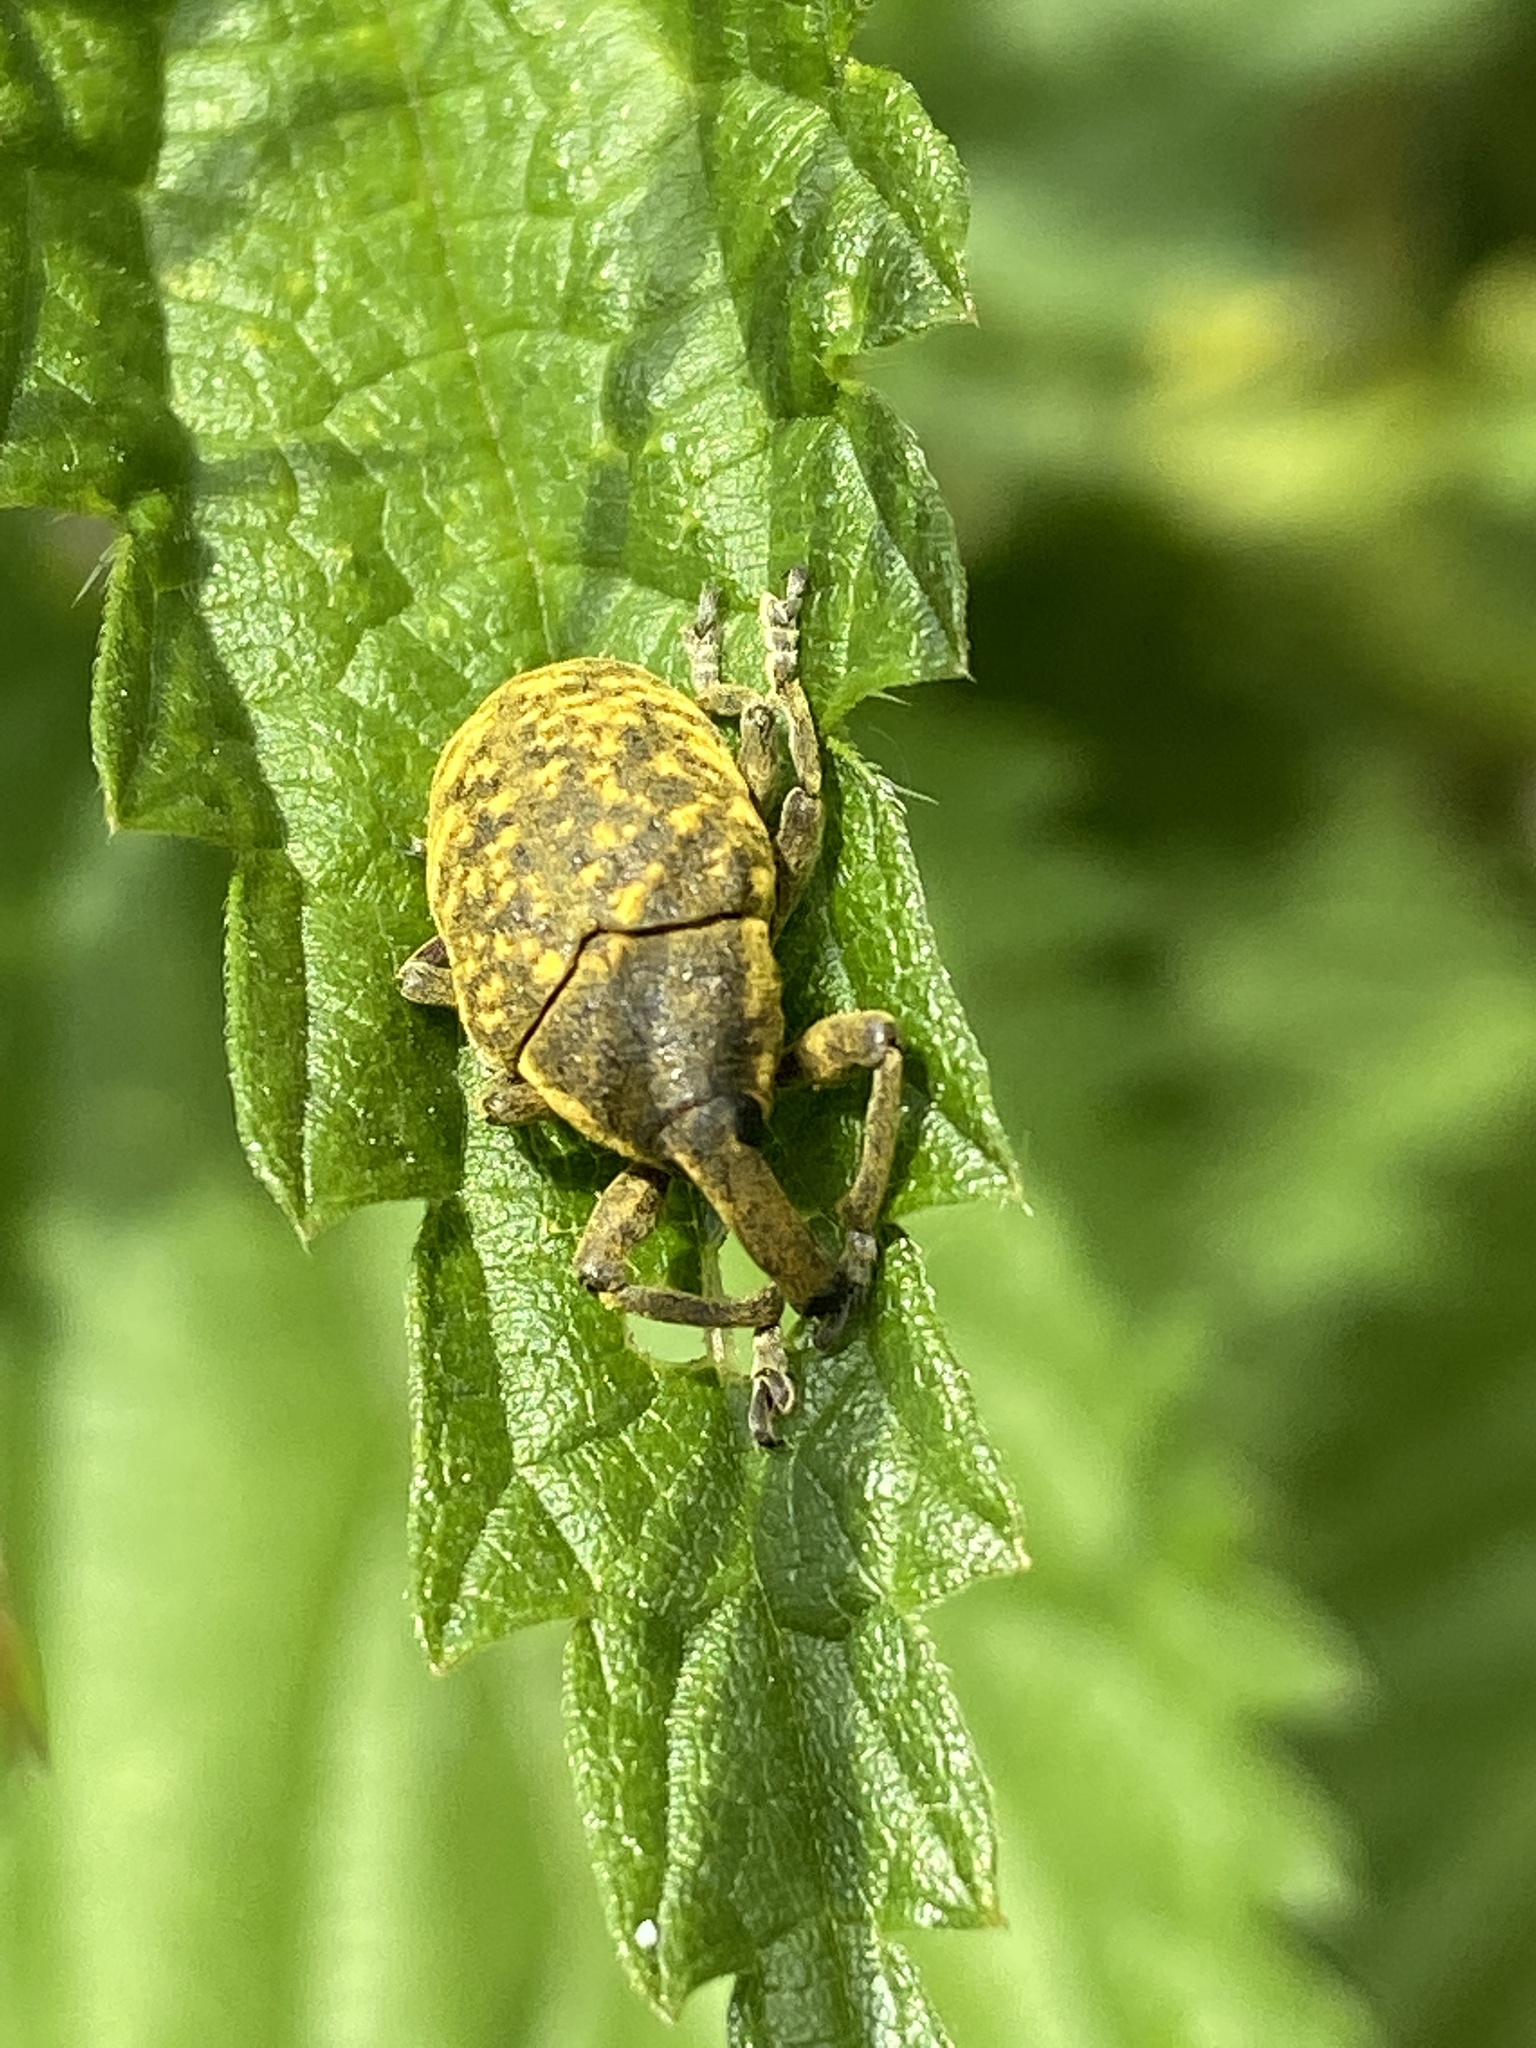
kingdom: Animalia
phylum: Arthropoda
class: Insecta
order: Coleoptera
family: Curculionidae
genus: Larinus
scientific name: Larinus sturnus
